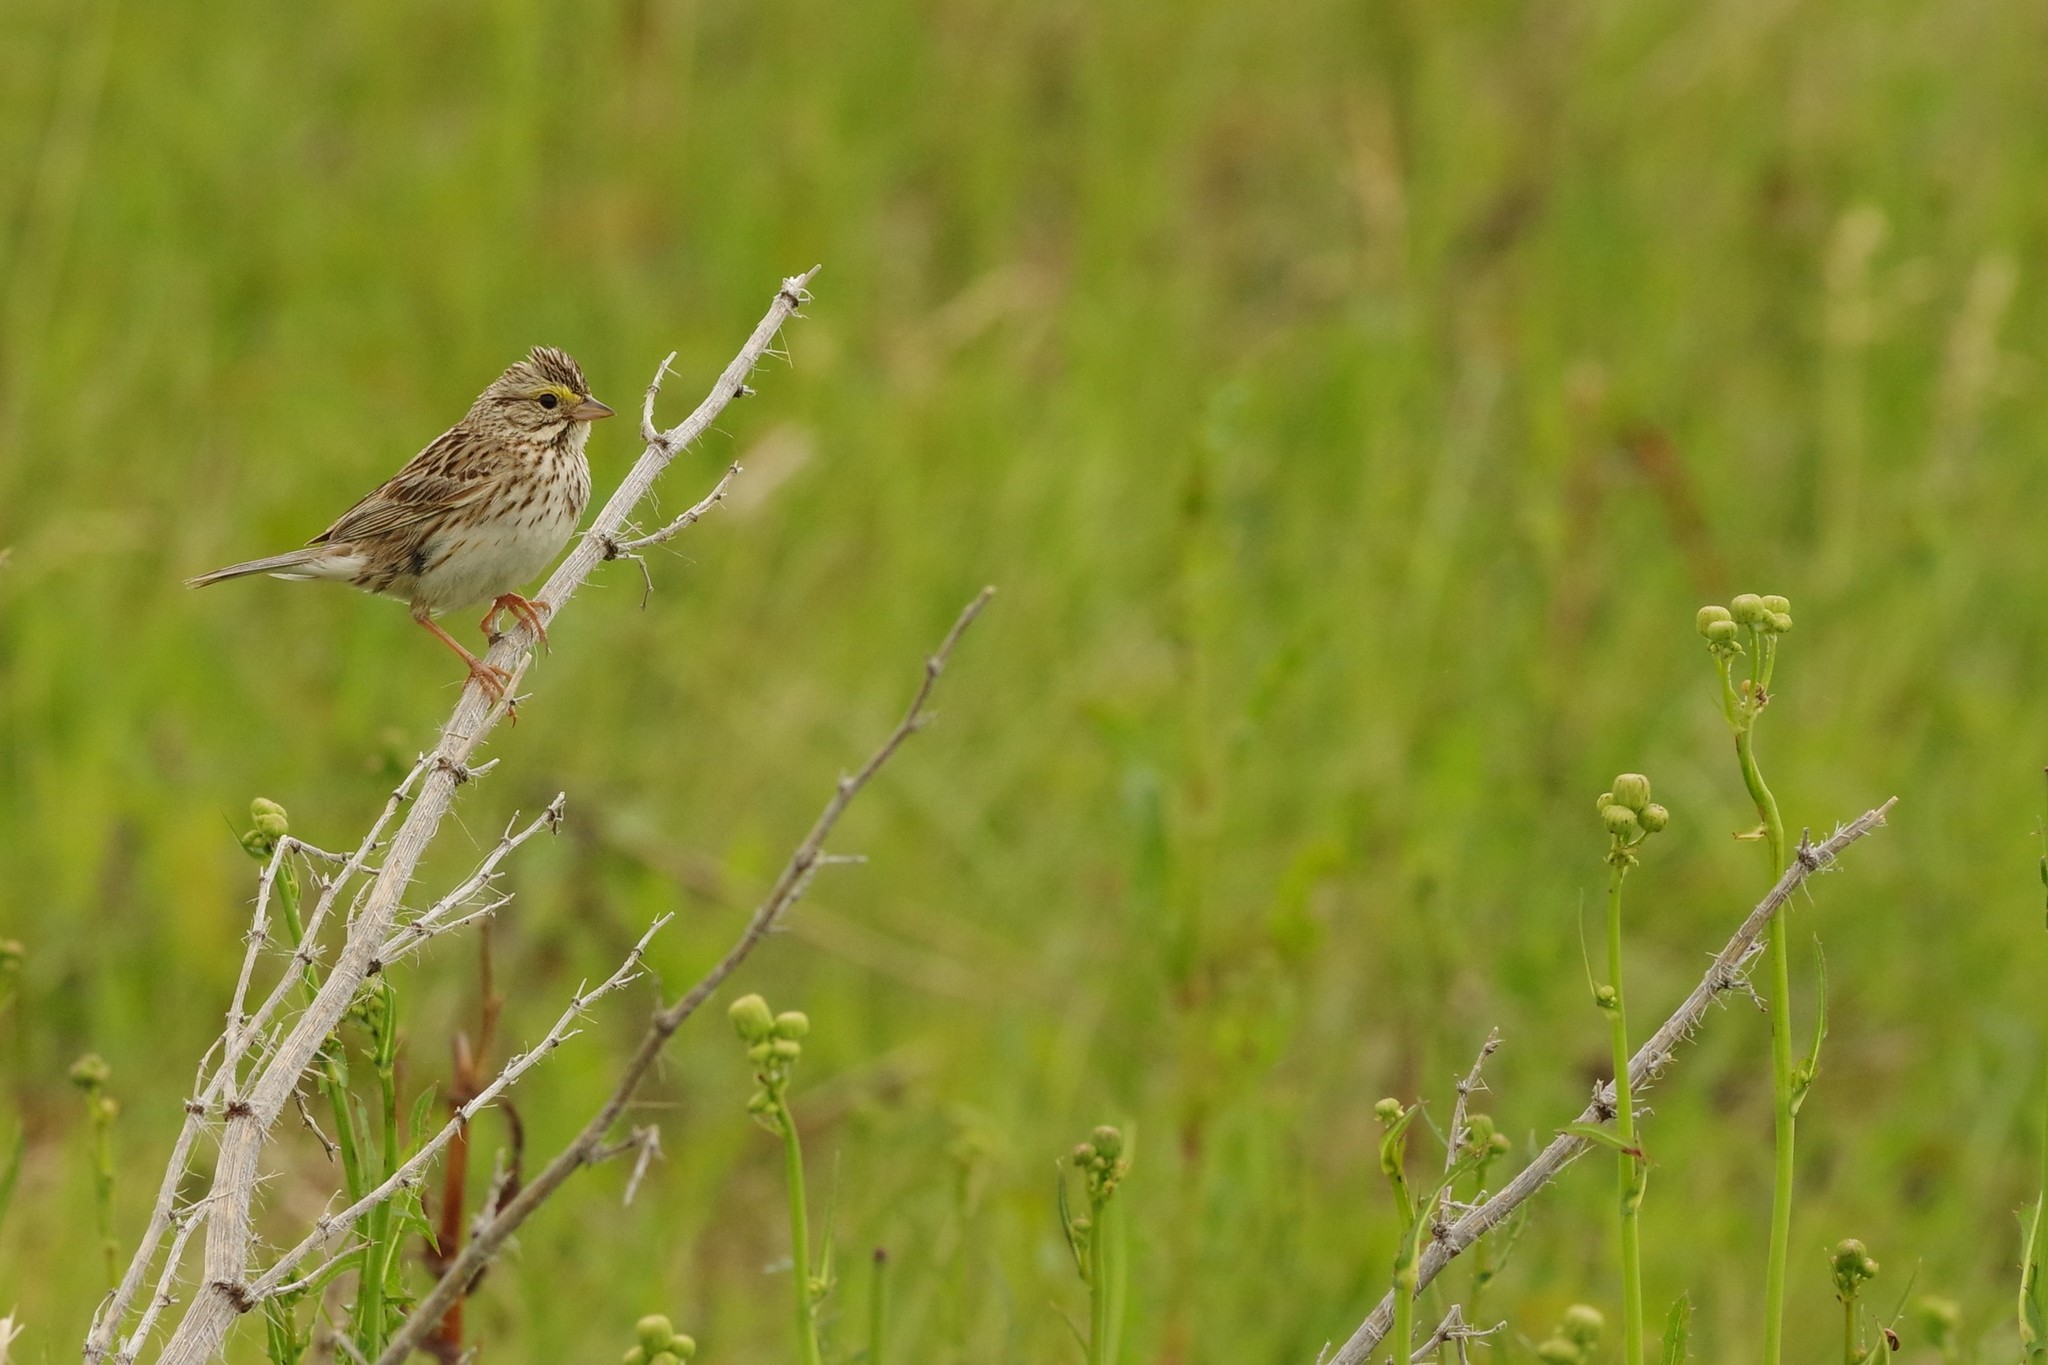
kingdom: Animalia
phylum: Chordata
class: Aves
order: Passeriformes
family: Passerellidae
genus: Passerculus
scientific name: Passerculus sandwichensis
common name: Savannah sparrow
